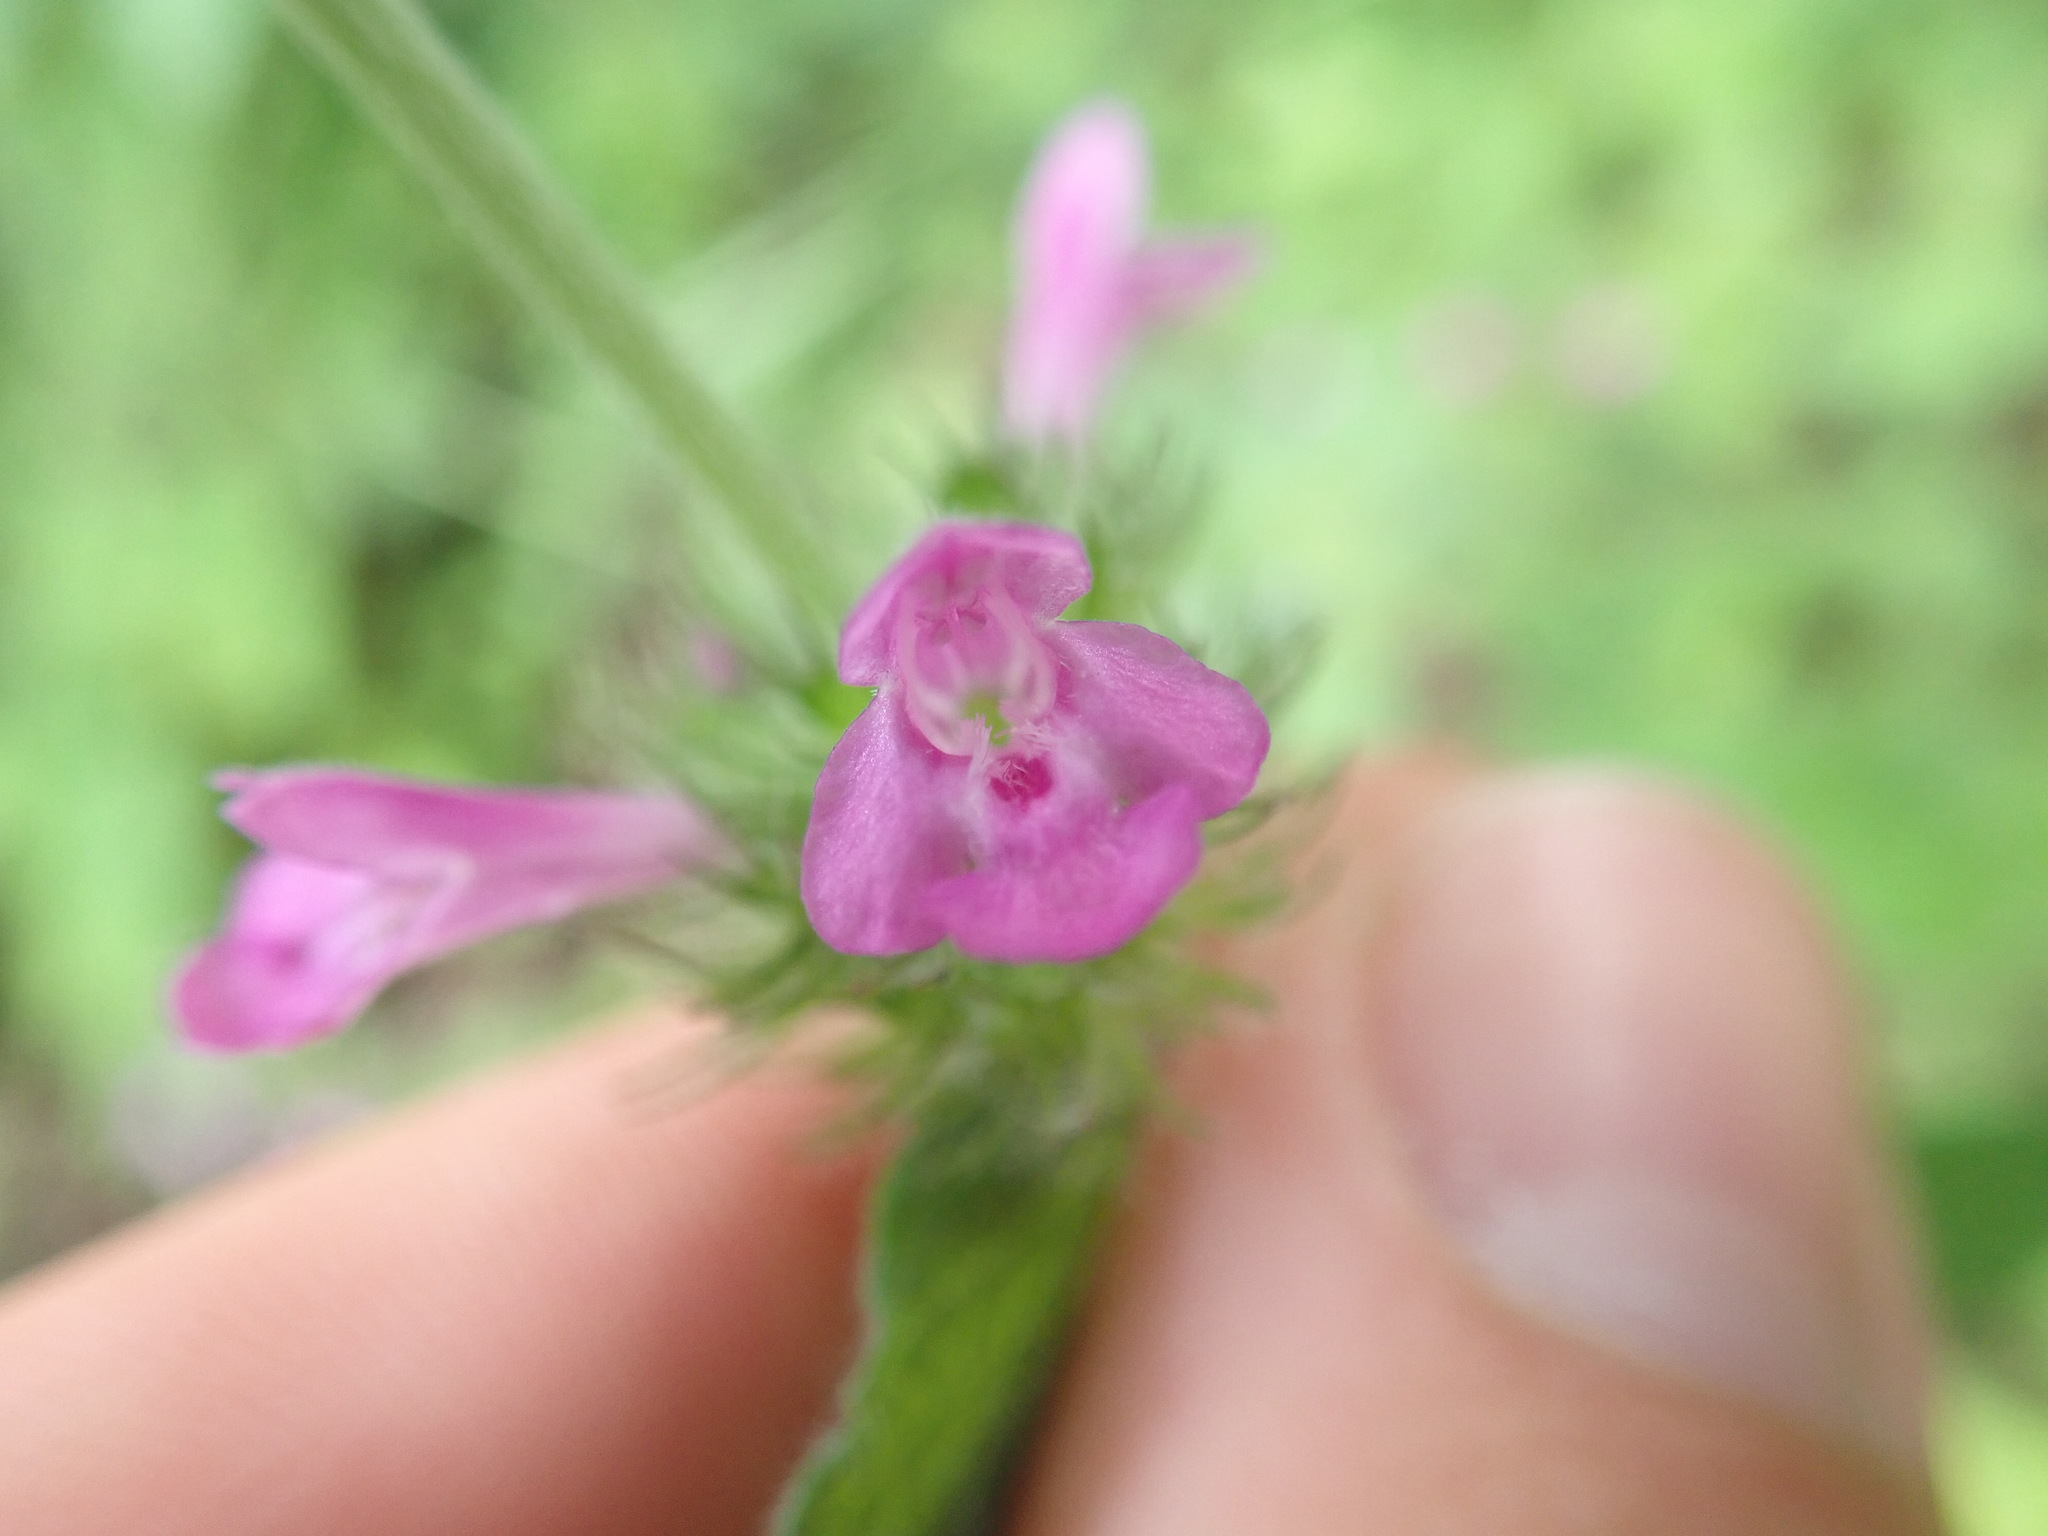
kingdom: Plantae
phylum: Tracheophyta
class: Magnoliopsida
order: Lamiales
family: Lamiaceae
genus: Clinopodium
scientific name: Clinopodium vulgare
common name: Wild basil
